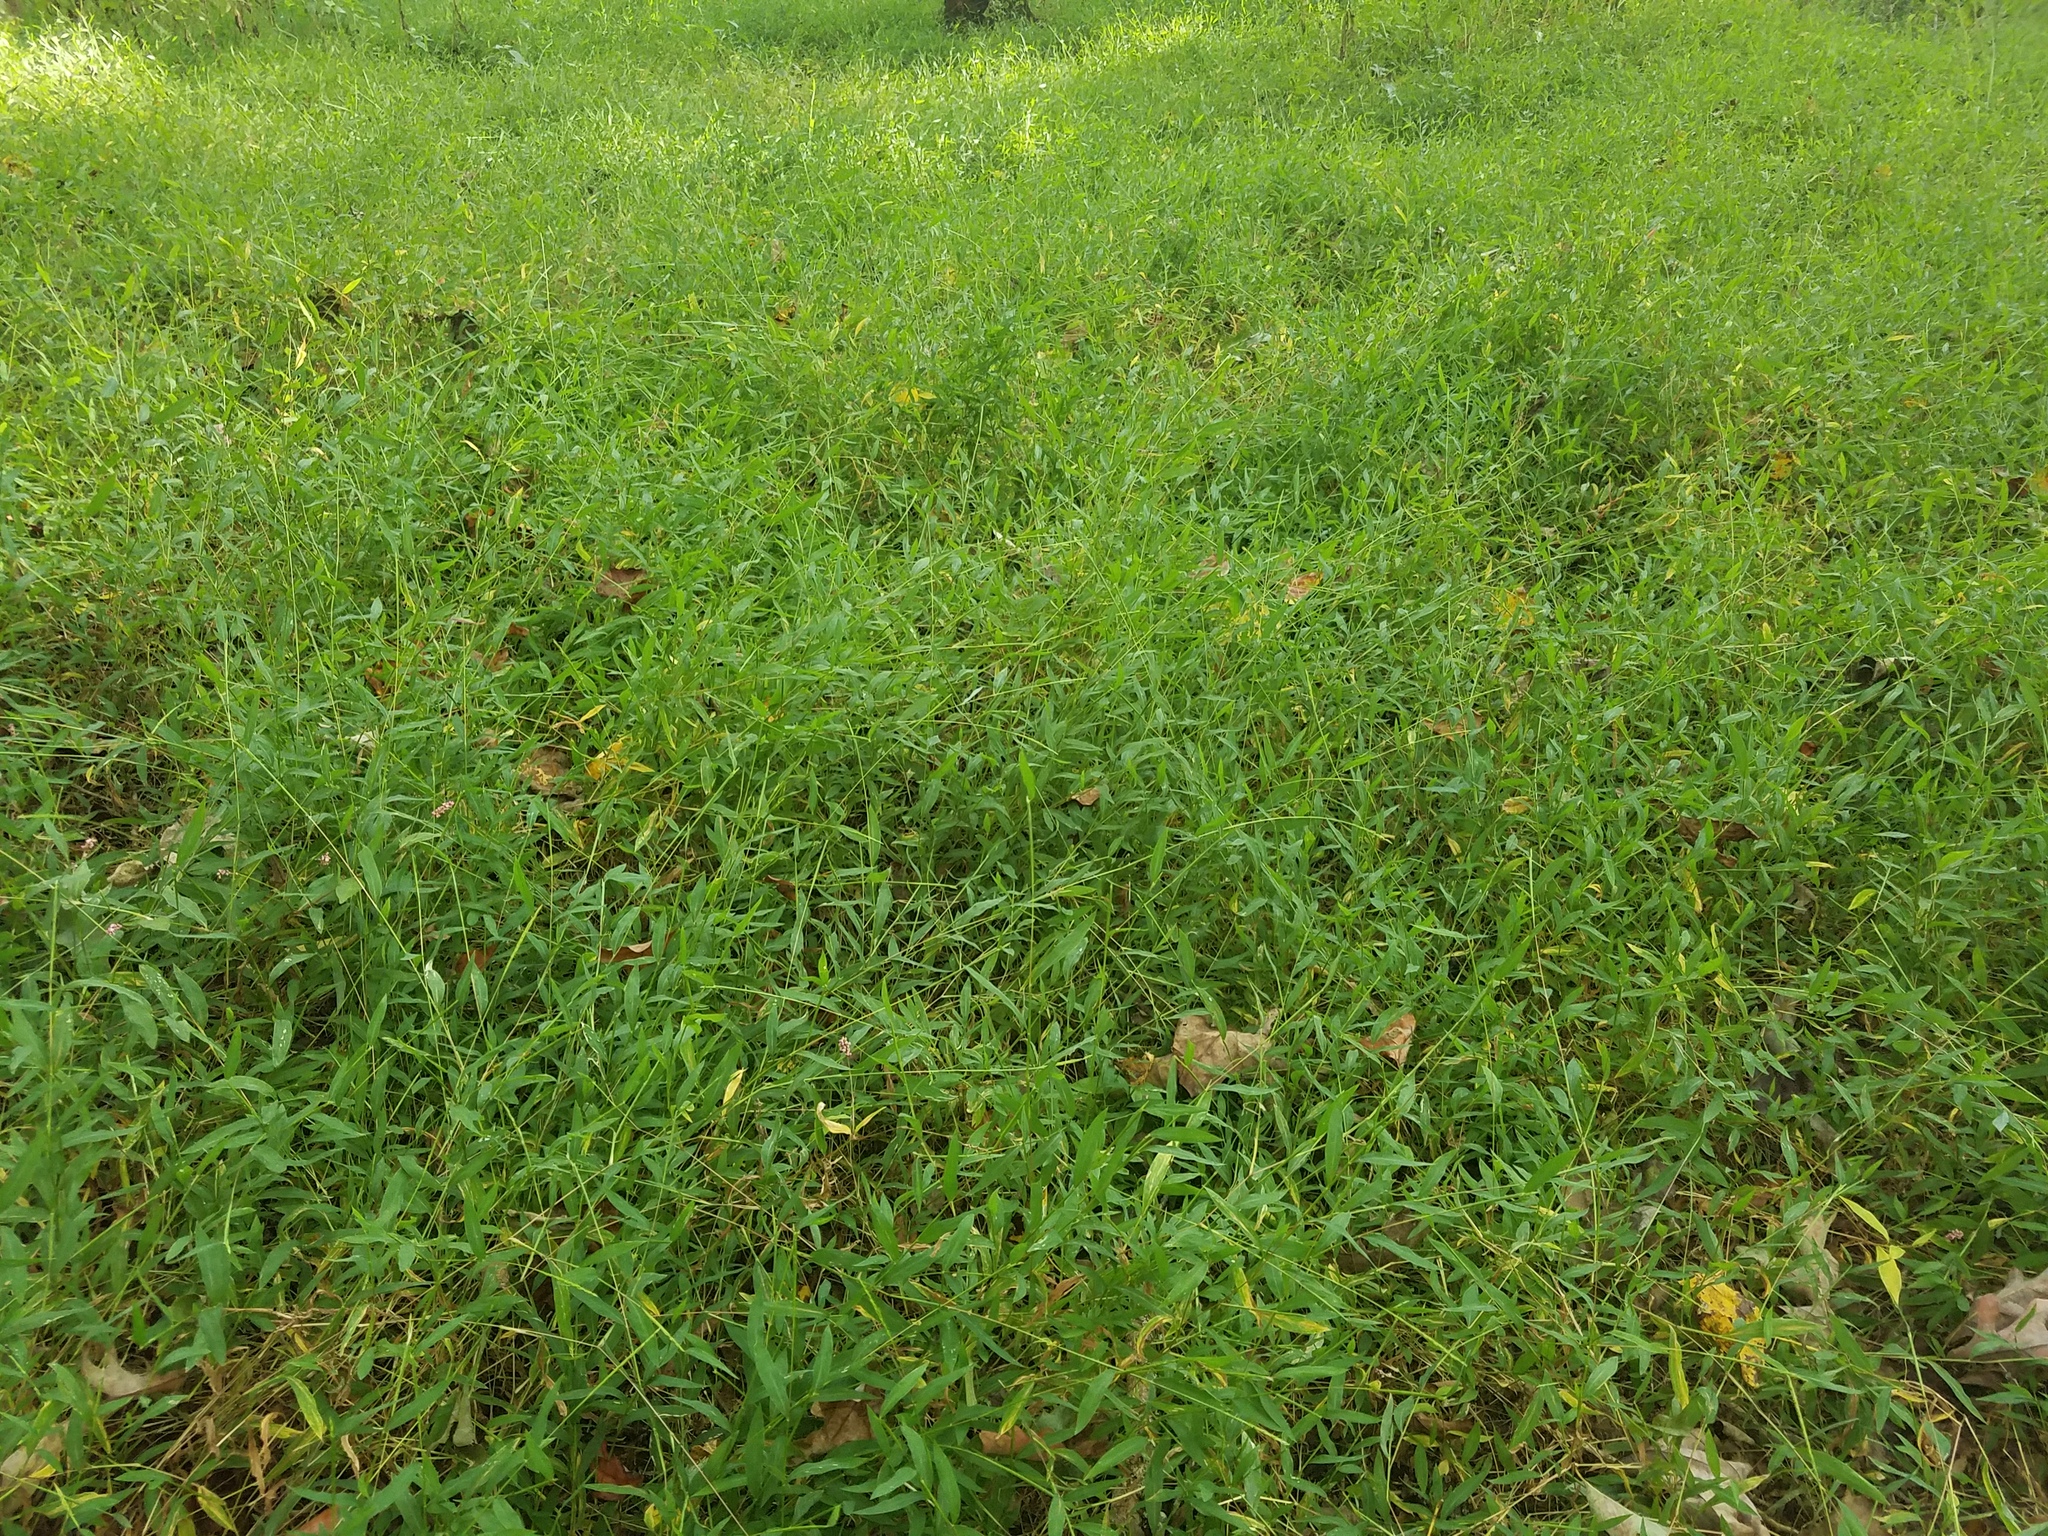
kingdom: Plantae
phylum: Tracheophyta
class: Liliopsida
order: Poales
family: Poaceae
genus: Microstegium
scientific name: Microstegium vimineum
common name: Japanese stiltgrass
